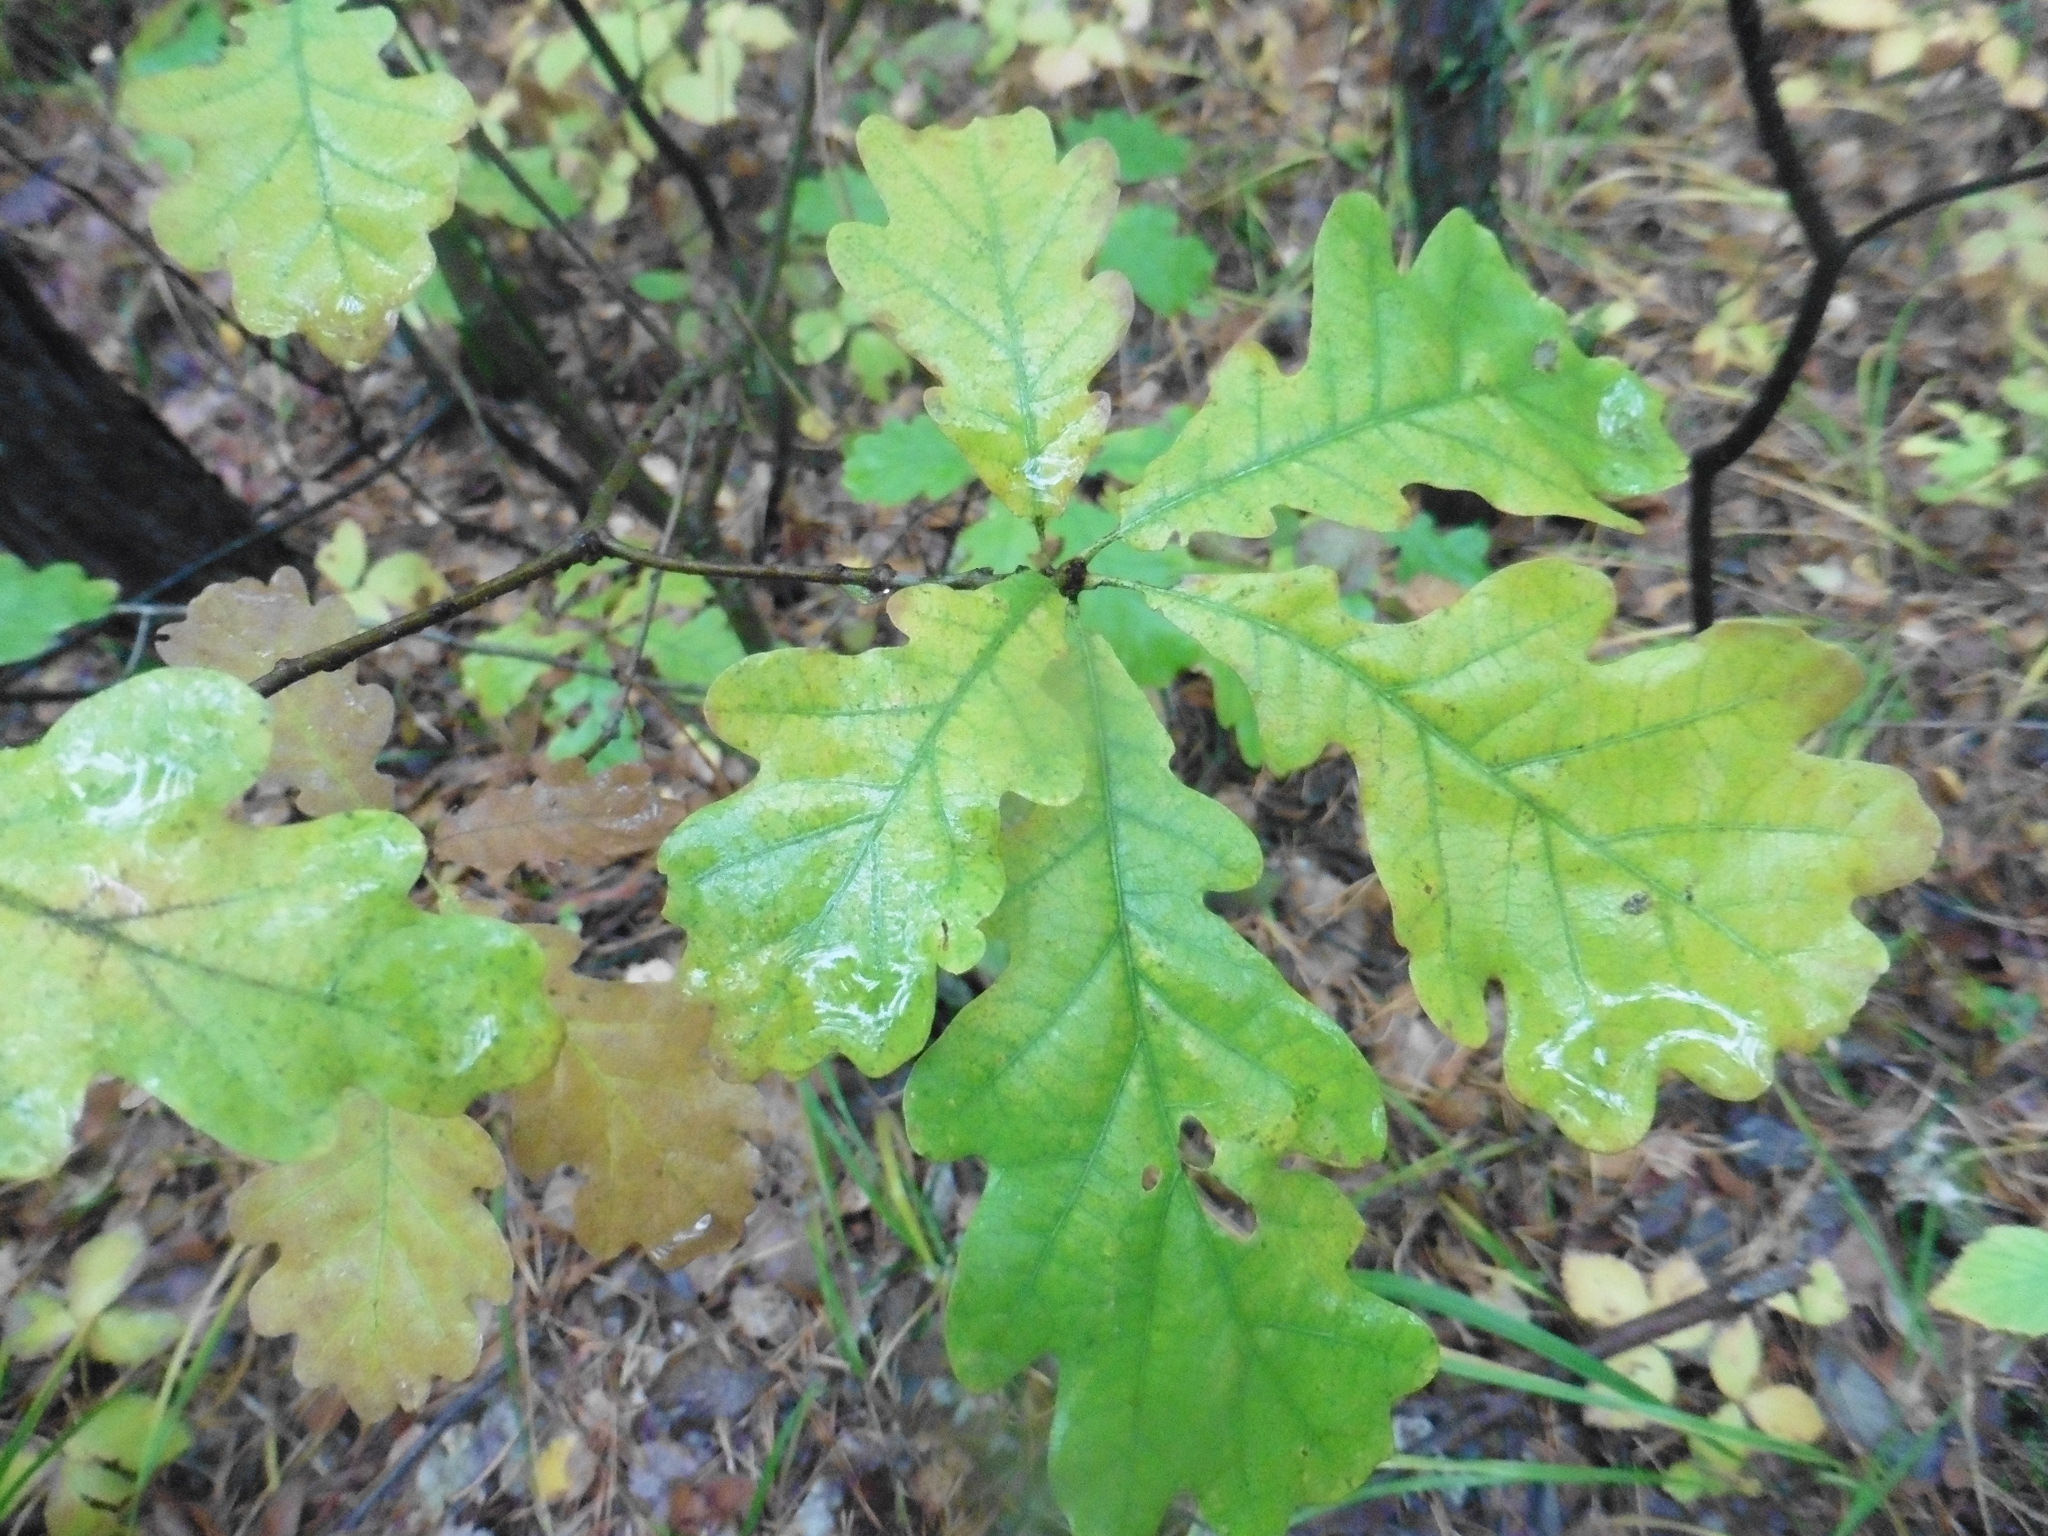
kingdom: Plantae
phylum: Tracheophyta
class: Magnoliopsida
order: Fagales
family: Fagaceae
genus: Quercus
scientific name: Quercus robur
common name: Pedunculate oak
